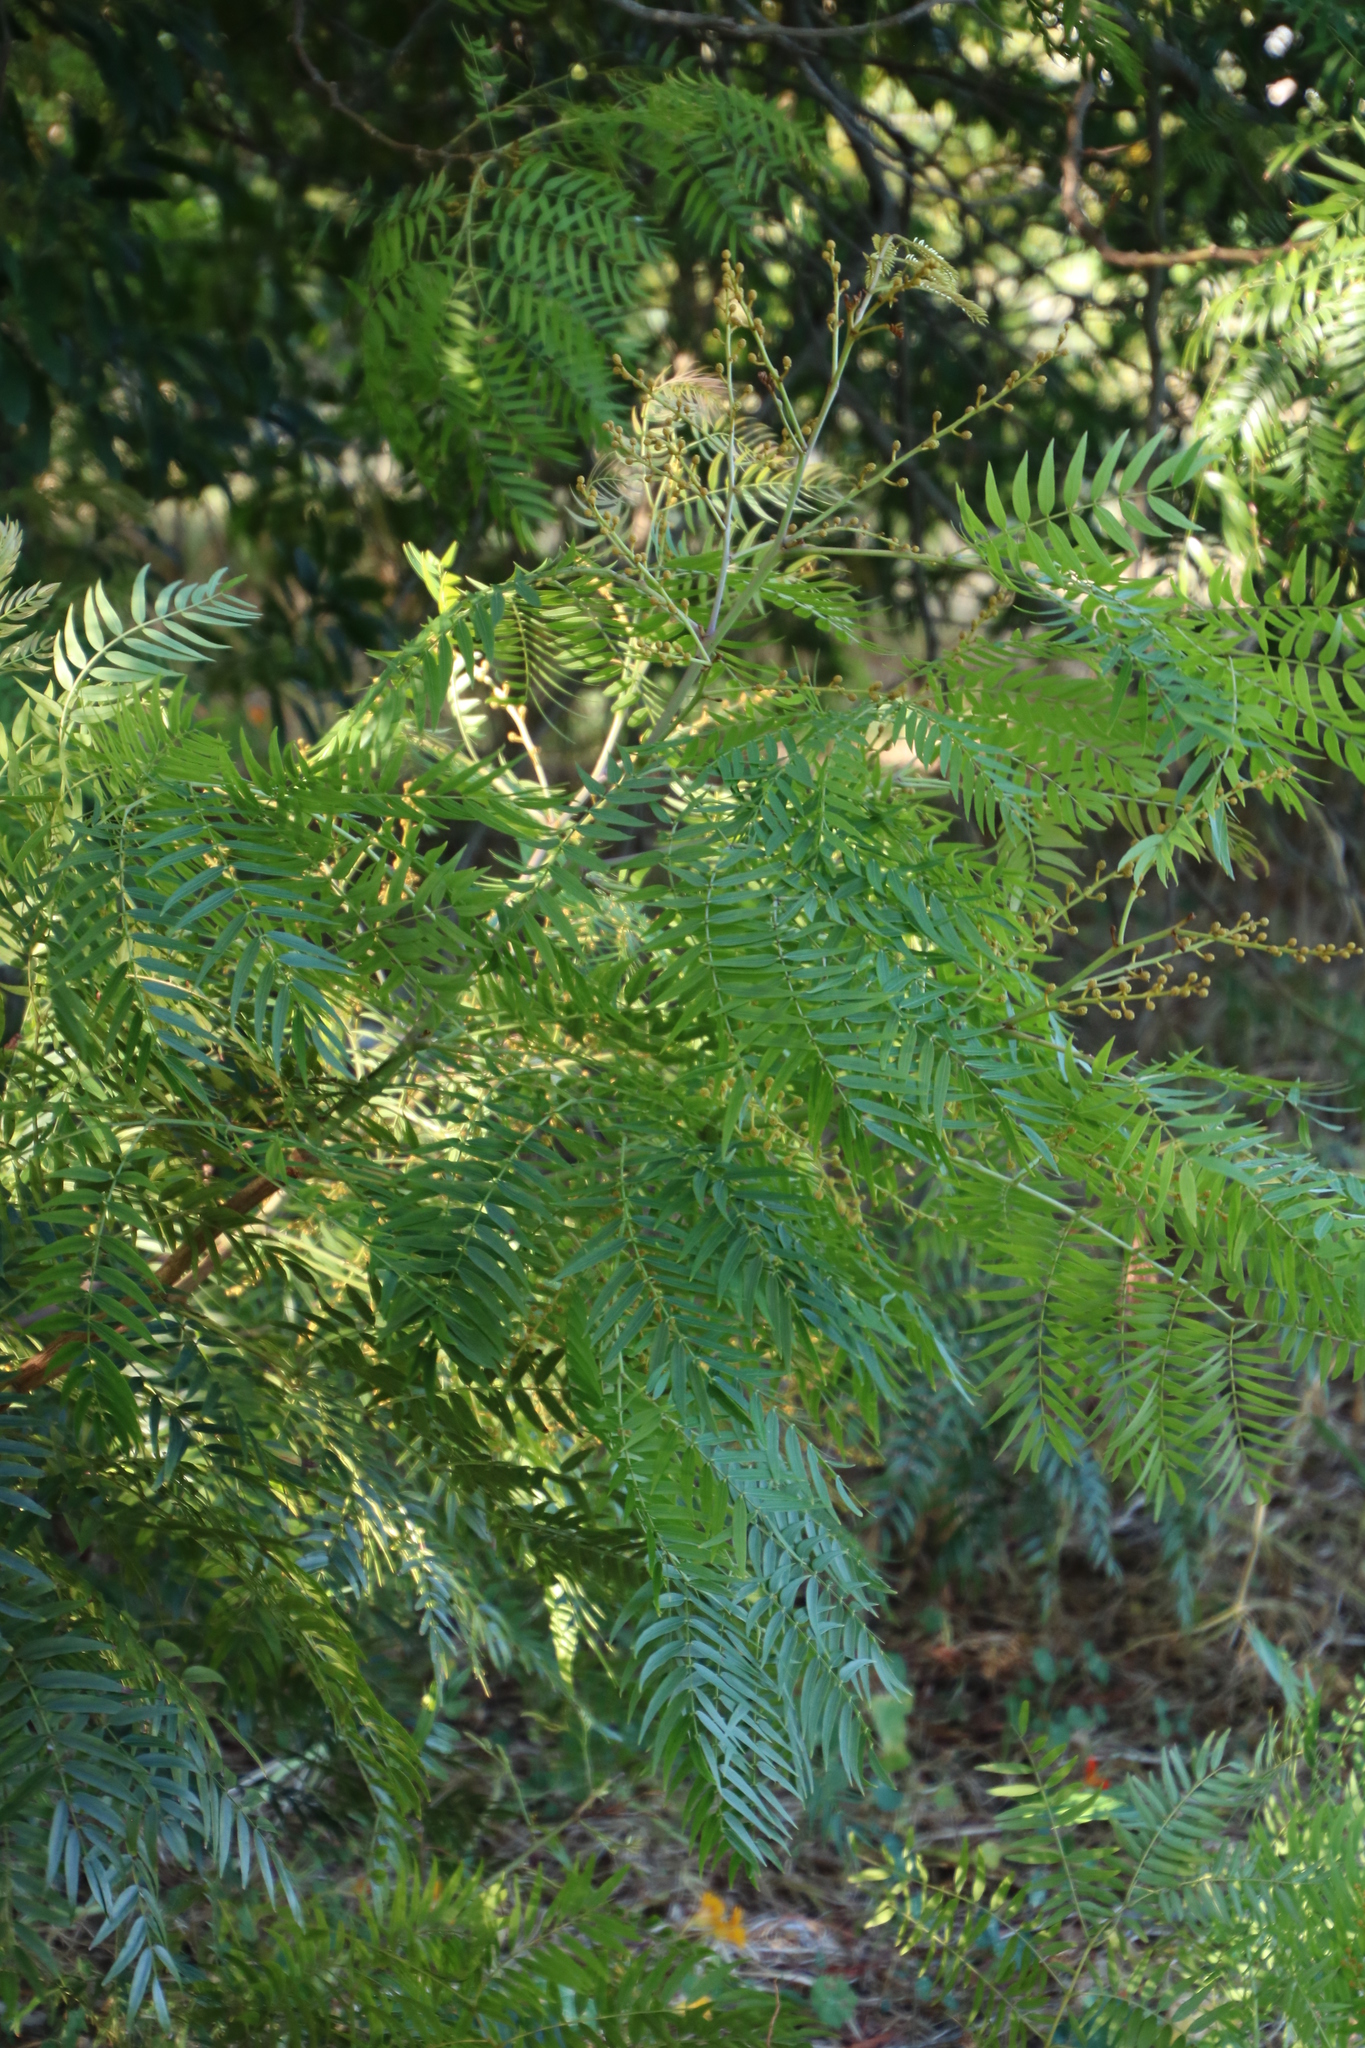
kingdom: Plantae
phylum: Tracheophyta
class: Magnoliopsida
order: Fabales
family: Fabaceae
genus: Acacia
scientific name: Acacia elata
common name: Cedar wattle
